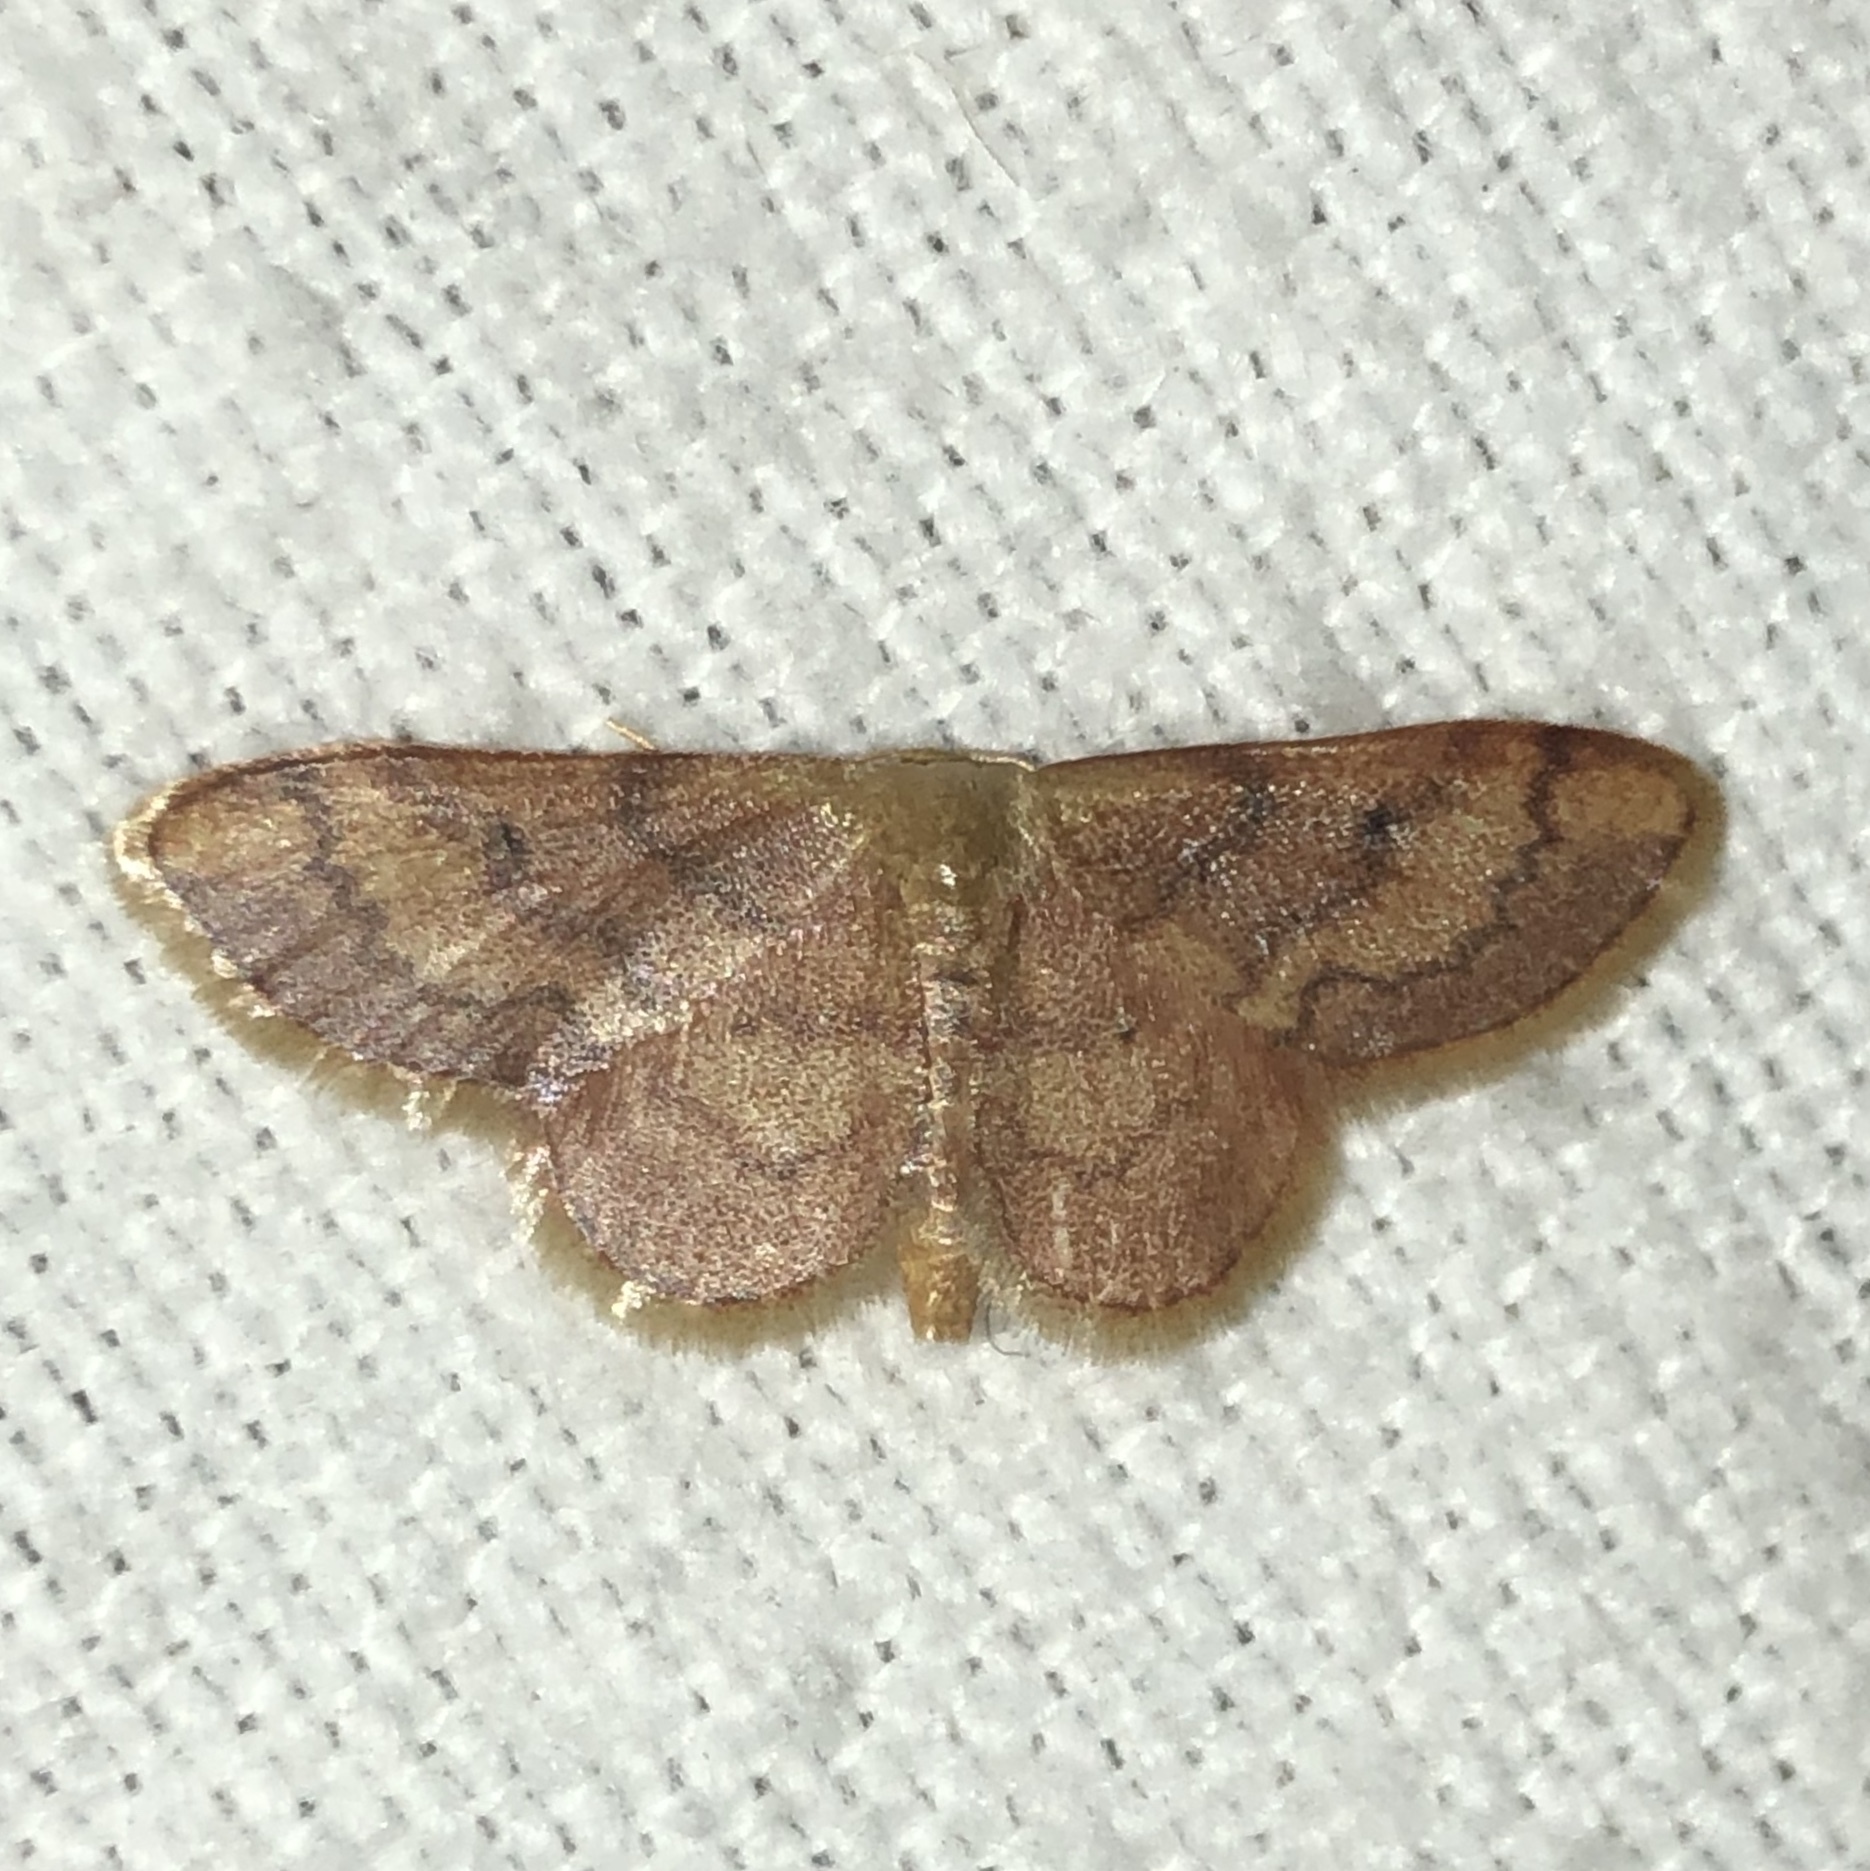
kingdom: Animalia
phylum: Arthropoda
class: Insecta
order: Lepidoptera
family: Geometridae
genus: Idaea
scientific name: Idaea demissaria
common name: Red-bordered wave
